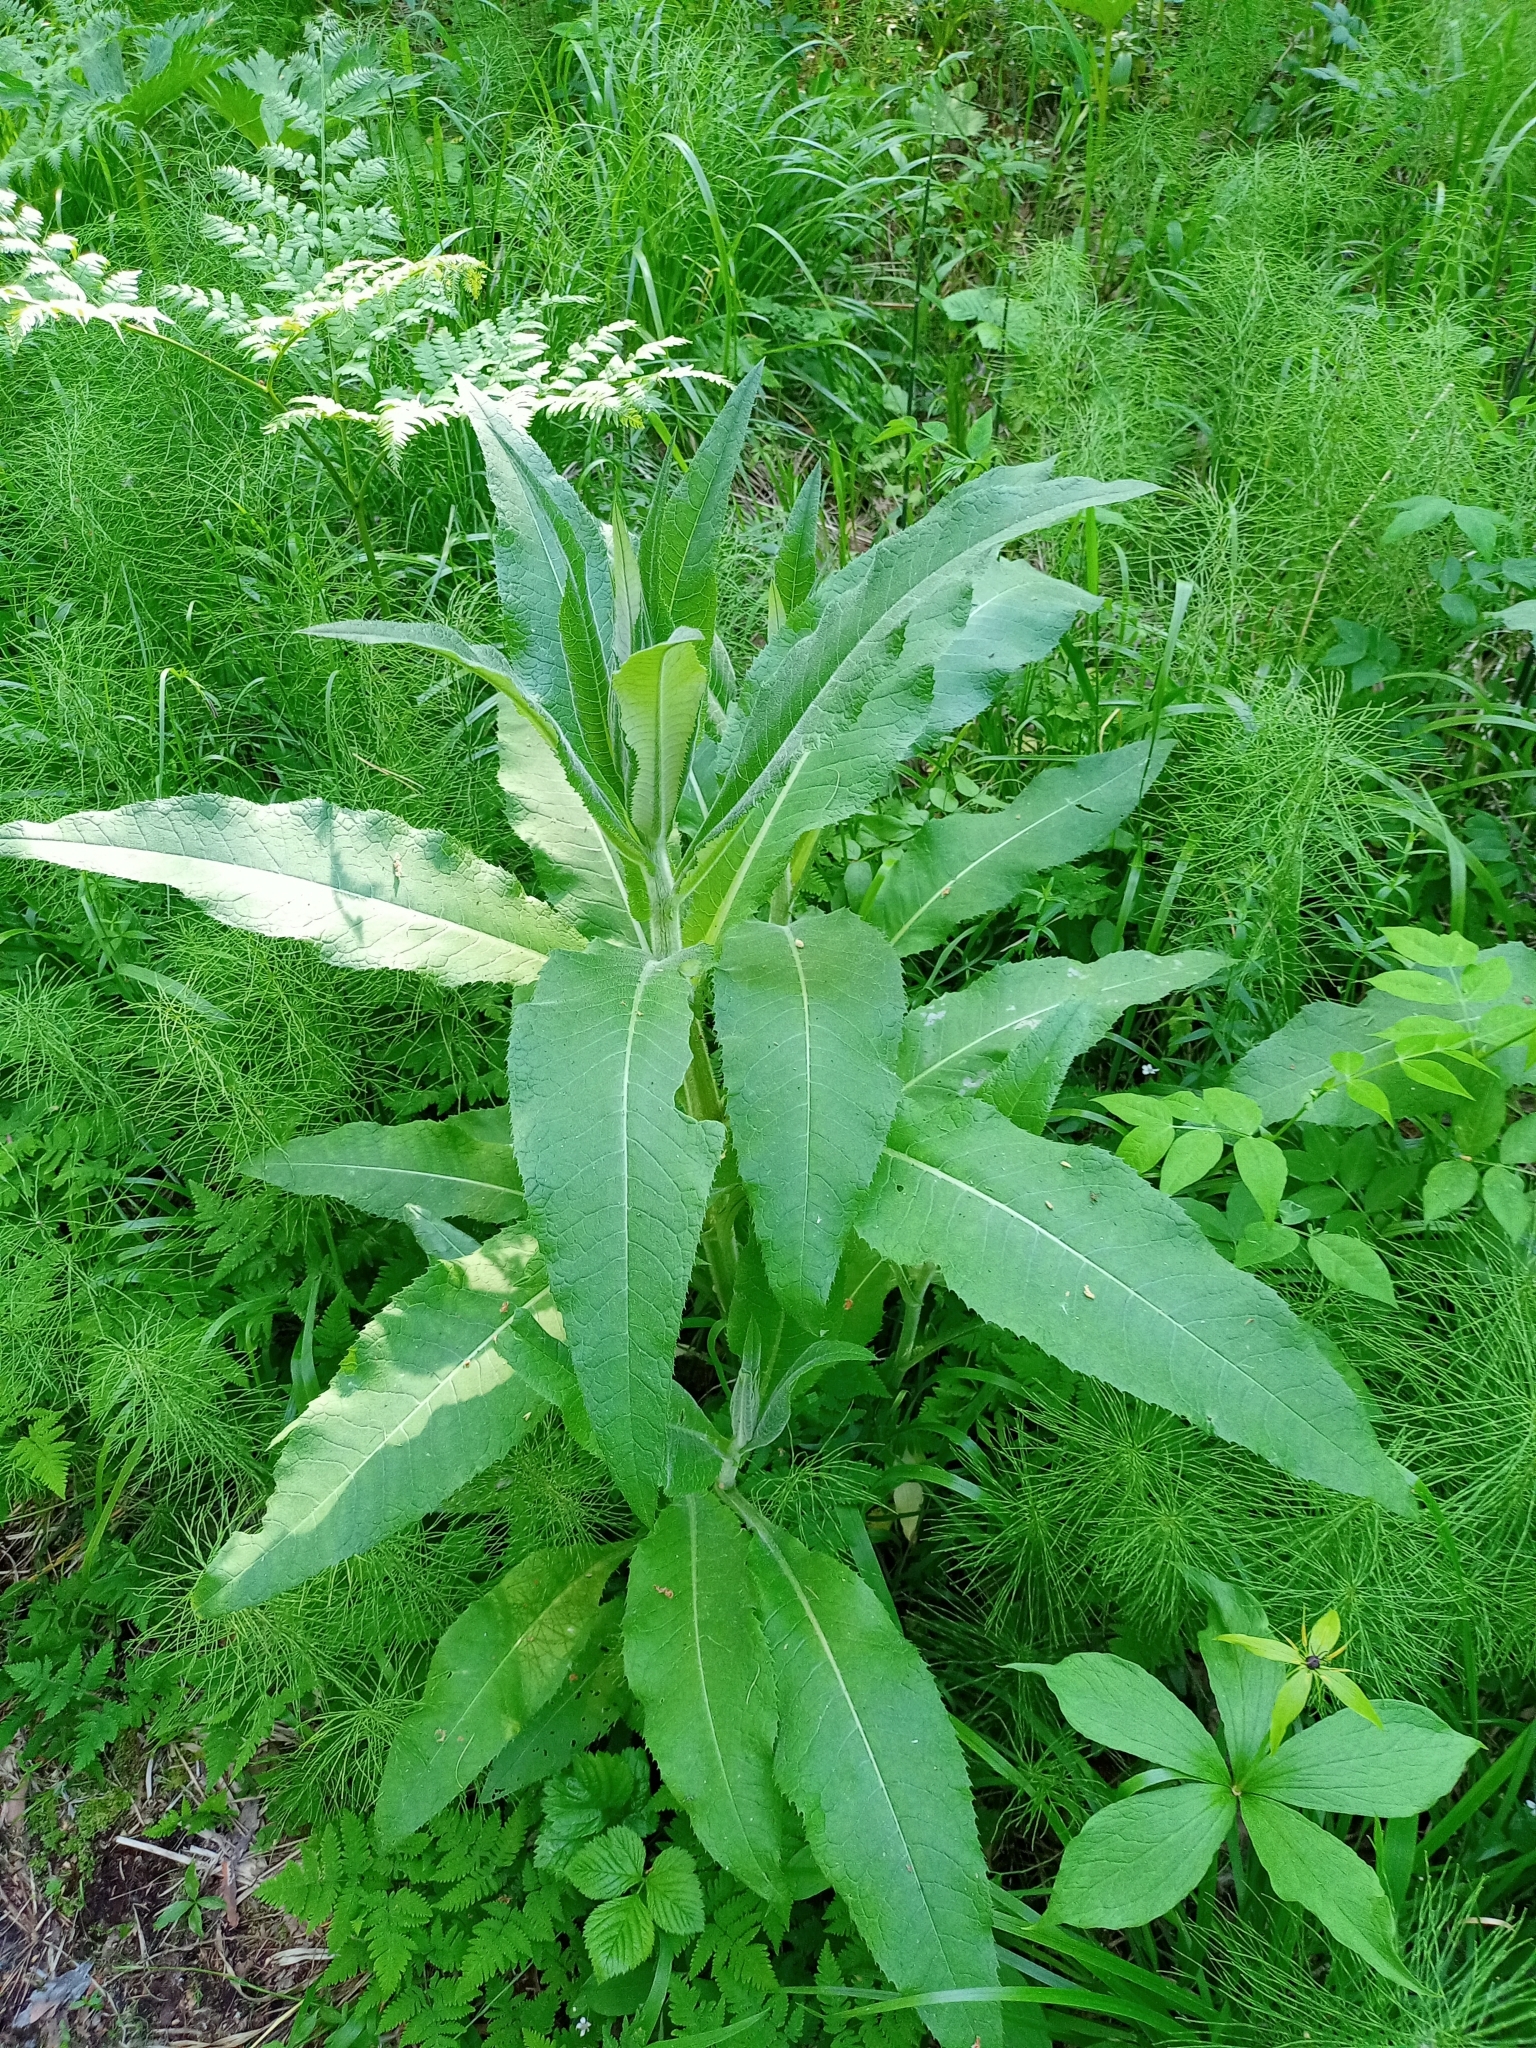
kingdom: Plantae
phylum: Tracheophyta
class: Magnoliopsida
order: Asterales
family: Asteraceae
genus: Cirsium
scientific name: Cirsium helenioides
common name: Melancholy thistle
